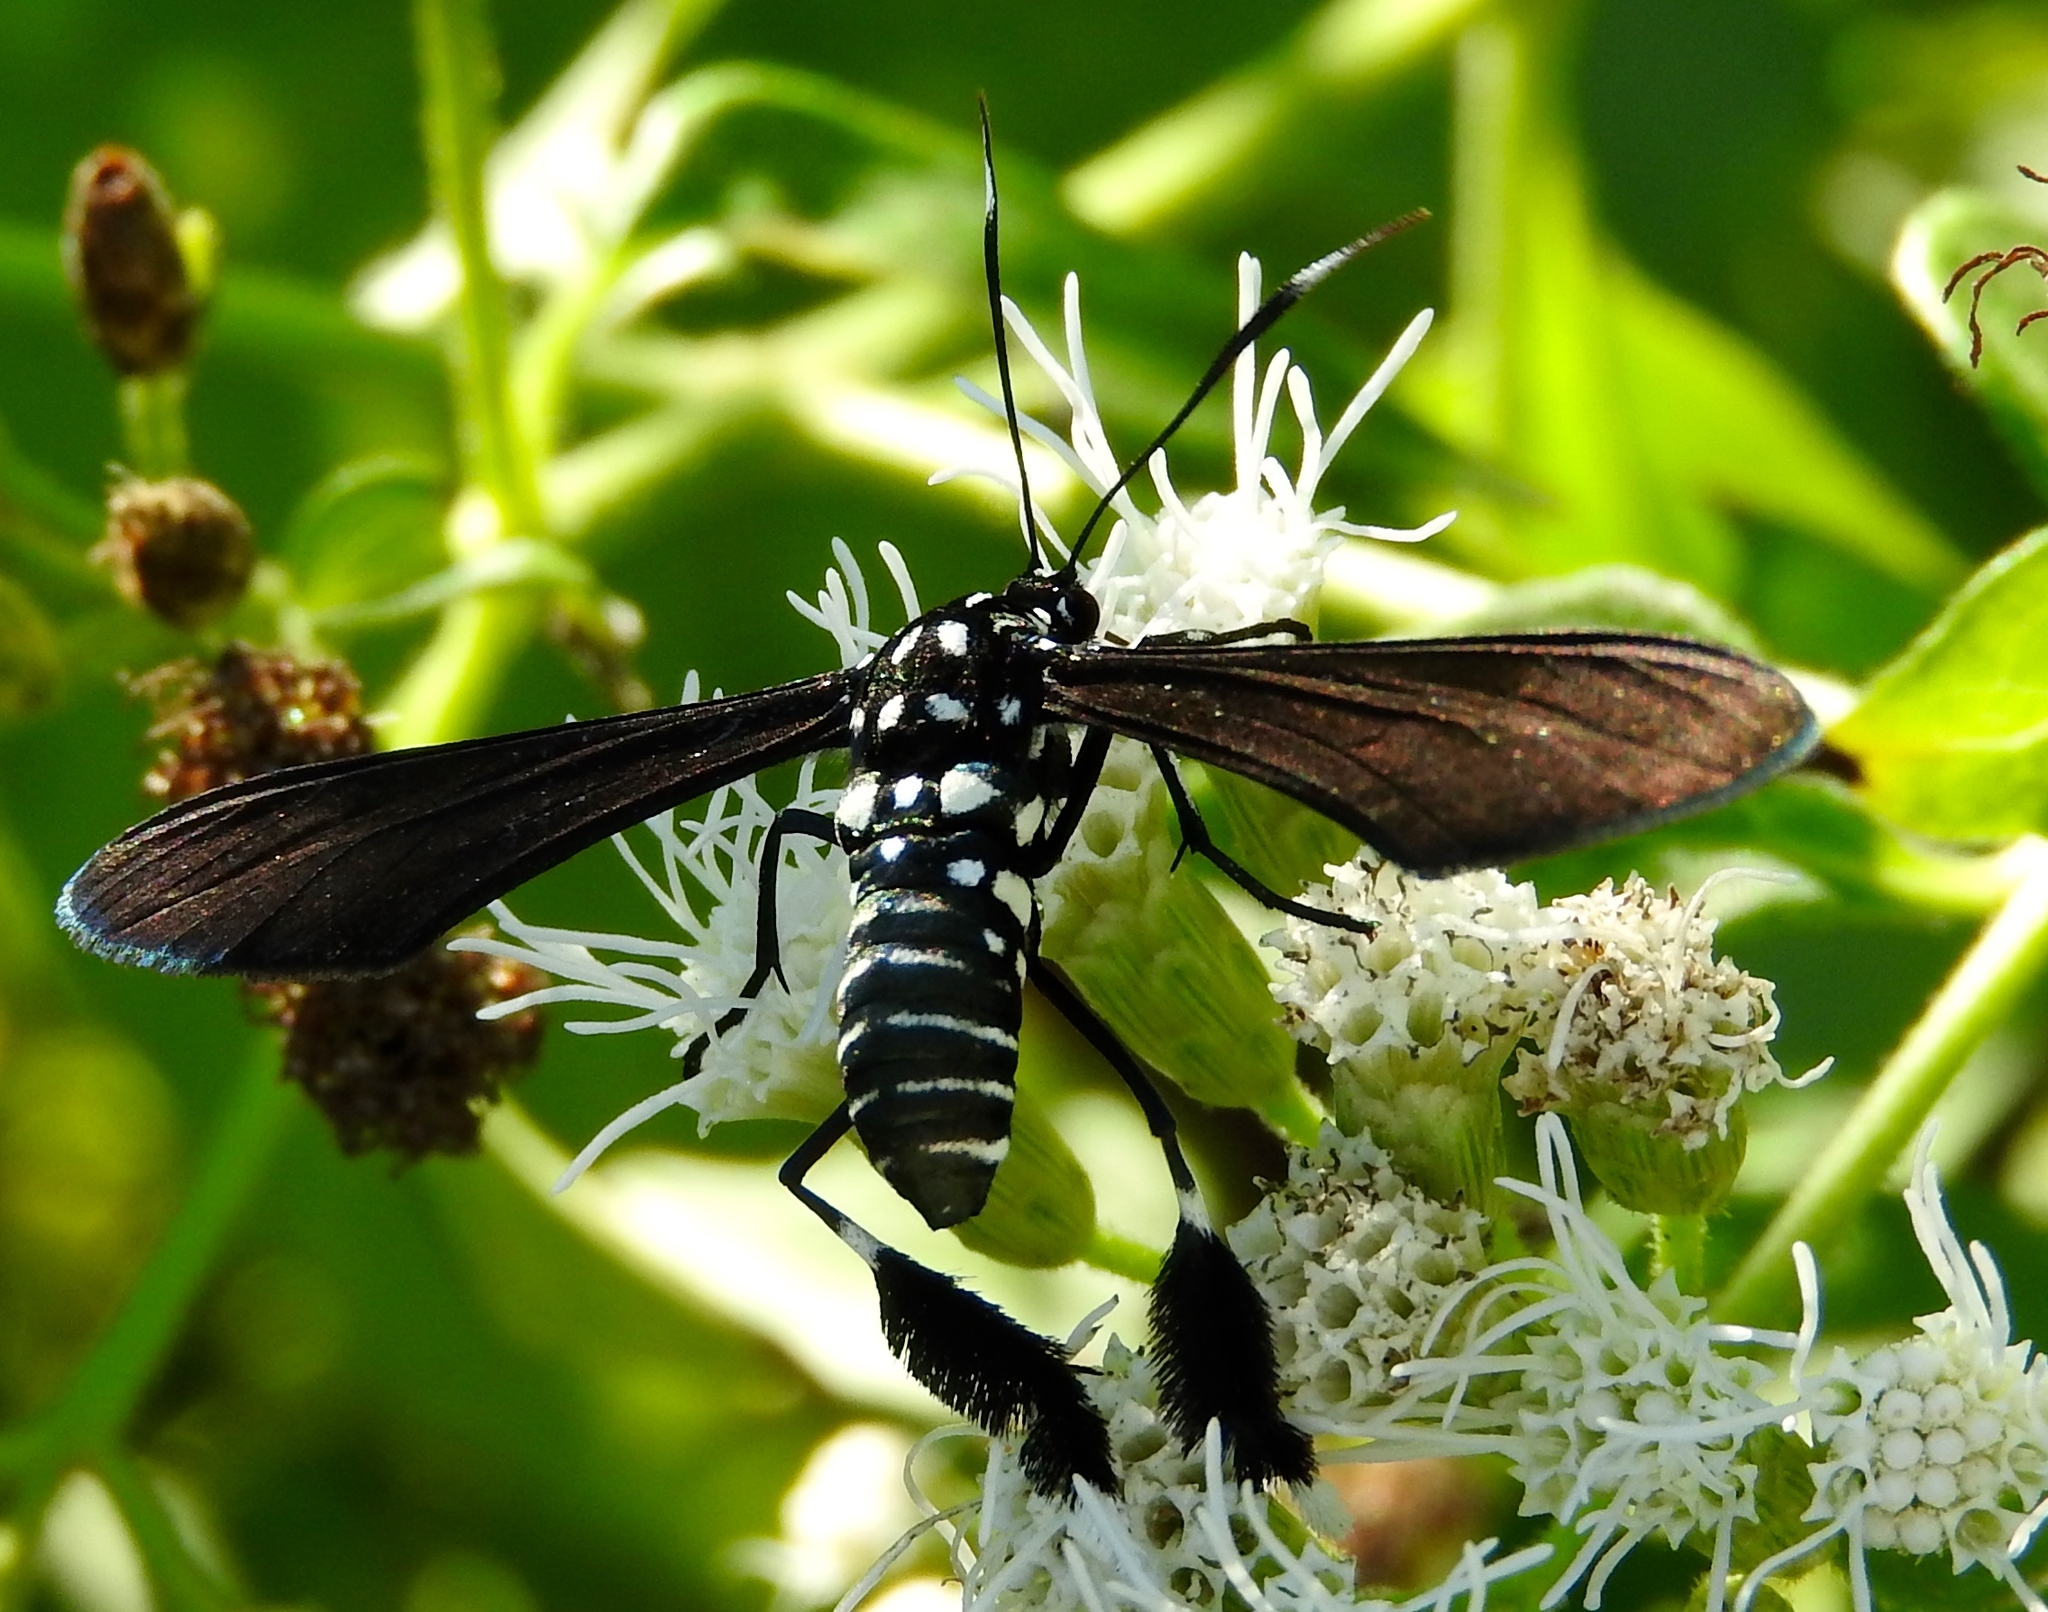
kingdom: Animalia
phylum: Arthropoda
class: Insecta
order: Lepidoptera
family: Erebidae
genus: Horama
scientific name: Horama plumipes
